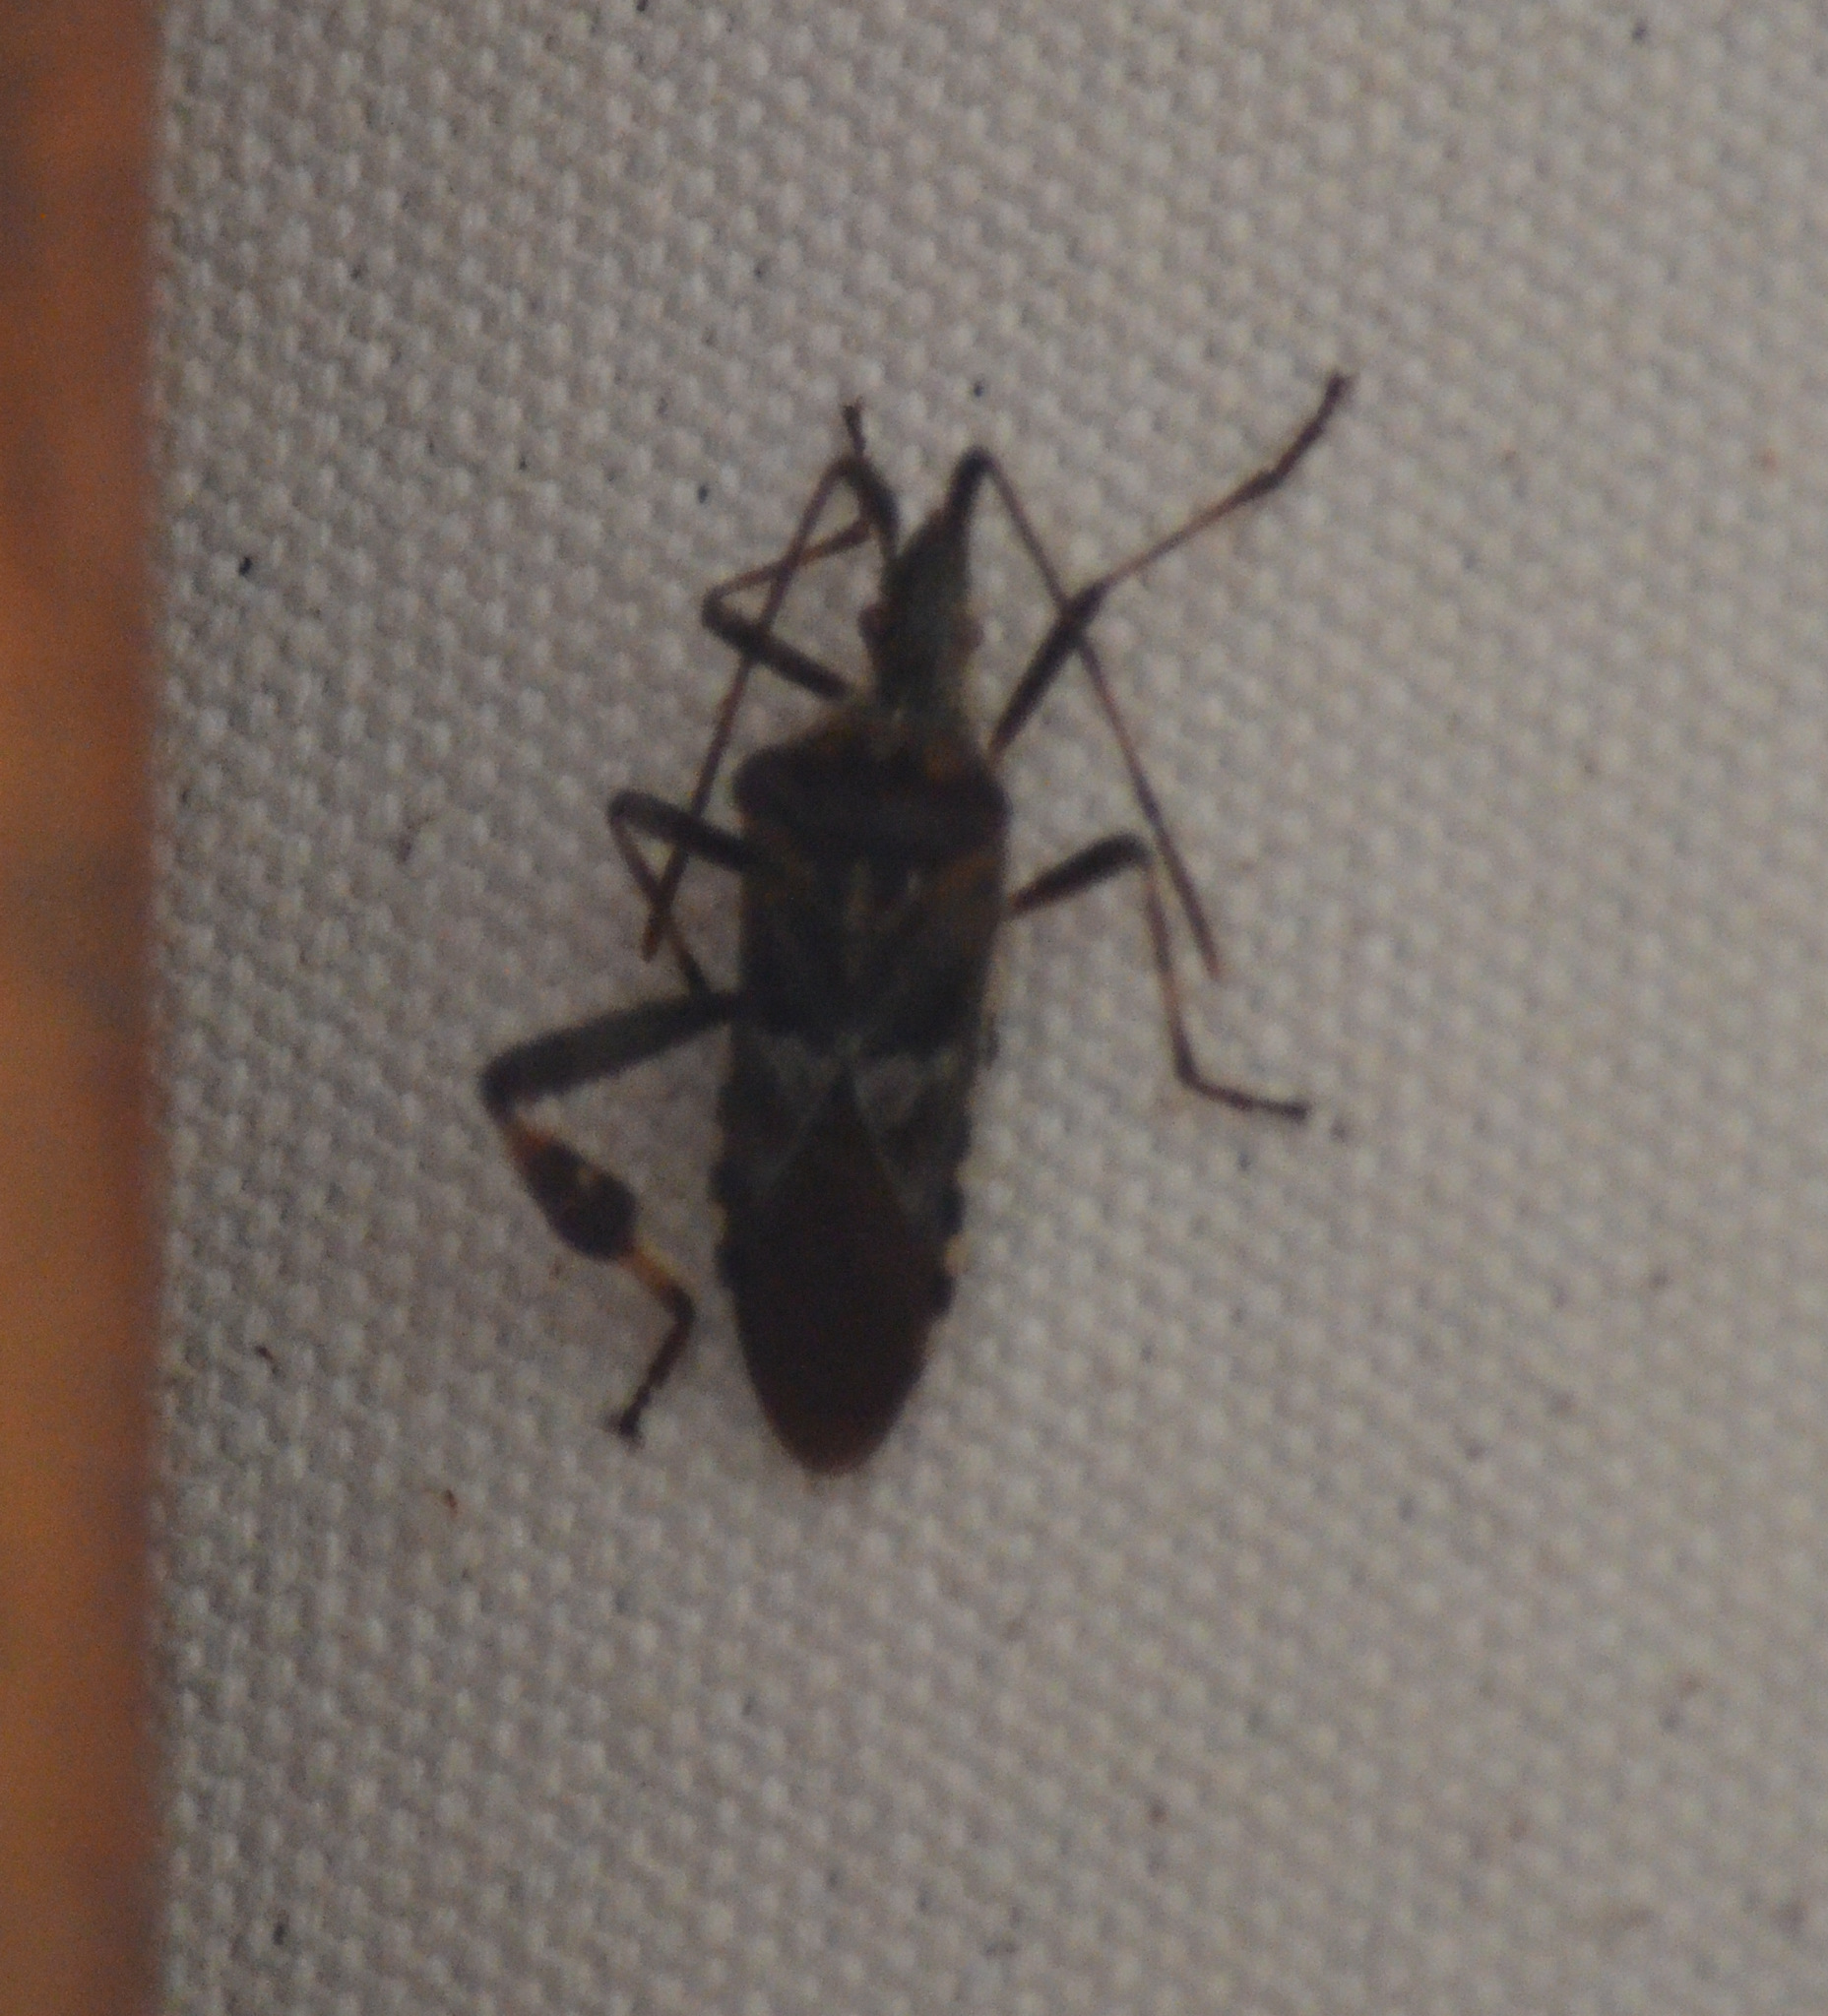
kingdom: Animalia
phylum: Arthropoda
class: Insecta
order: Hemiptera
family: Coreidae
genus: Leptoglossus
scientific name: Leptoglossus occidentalis
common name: Western conifer-seed bug
